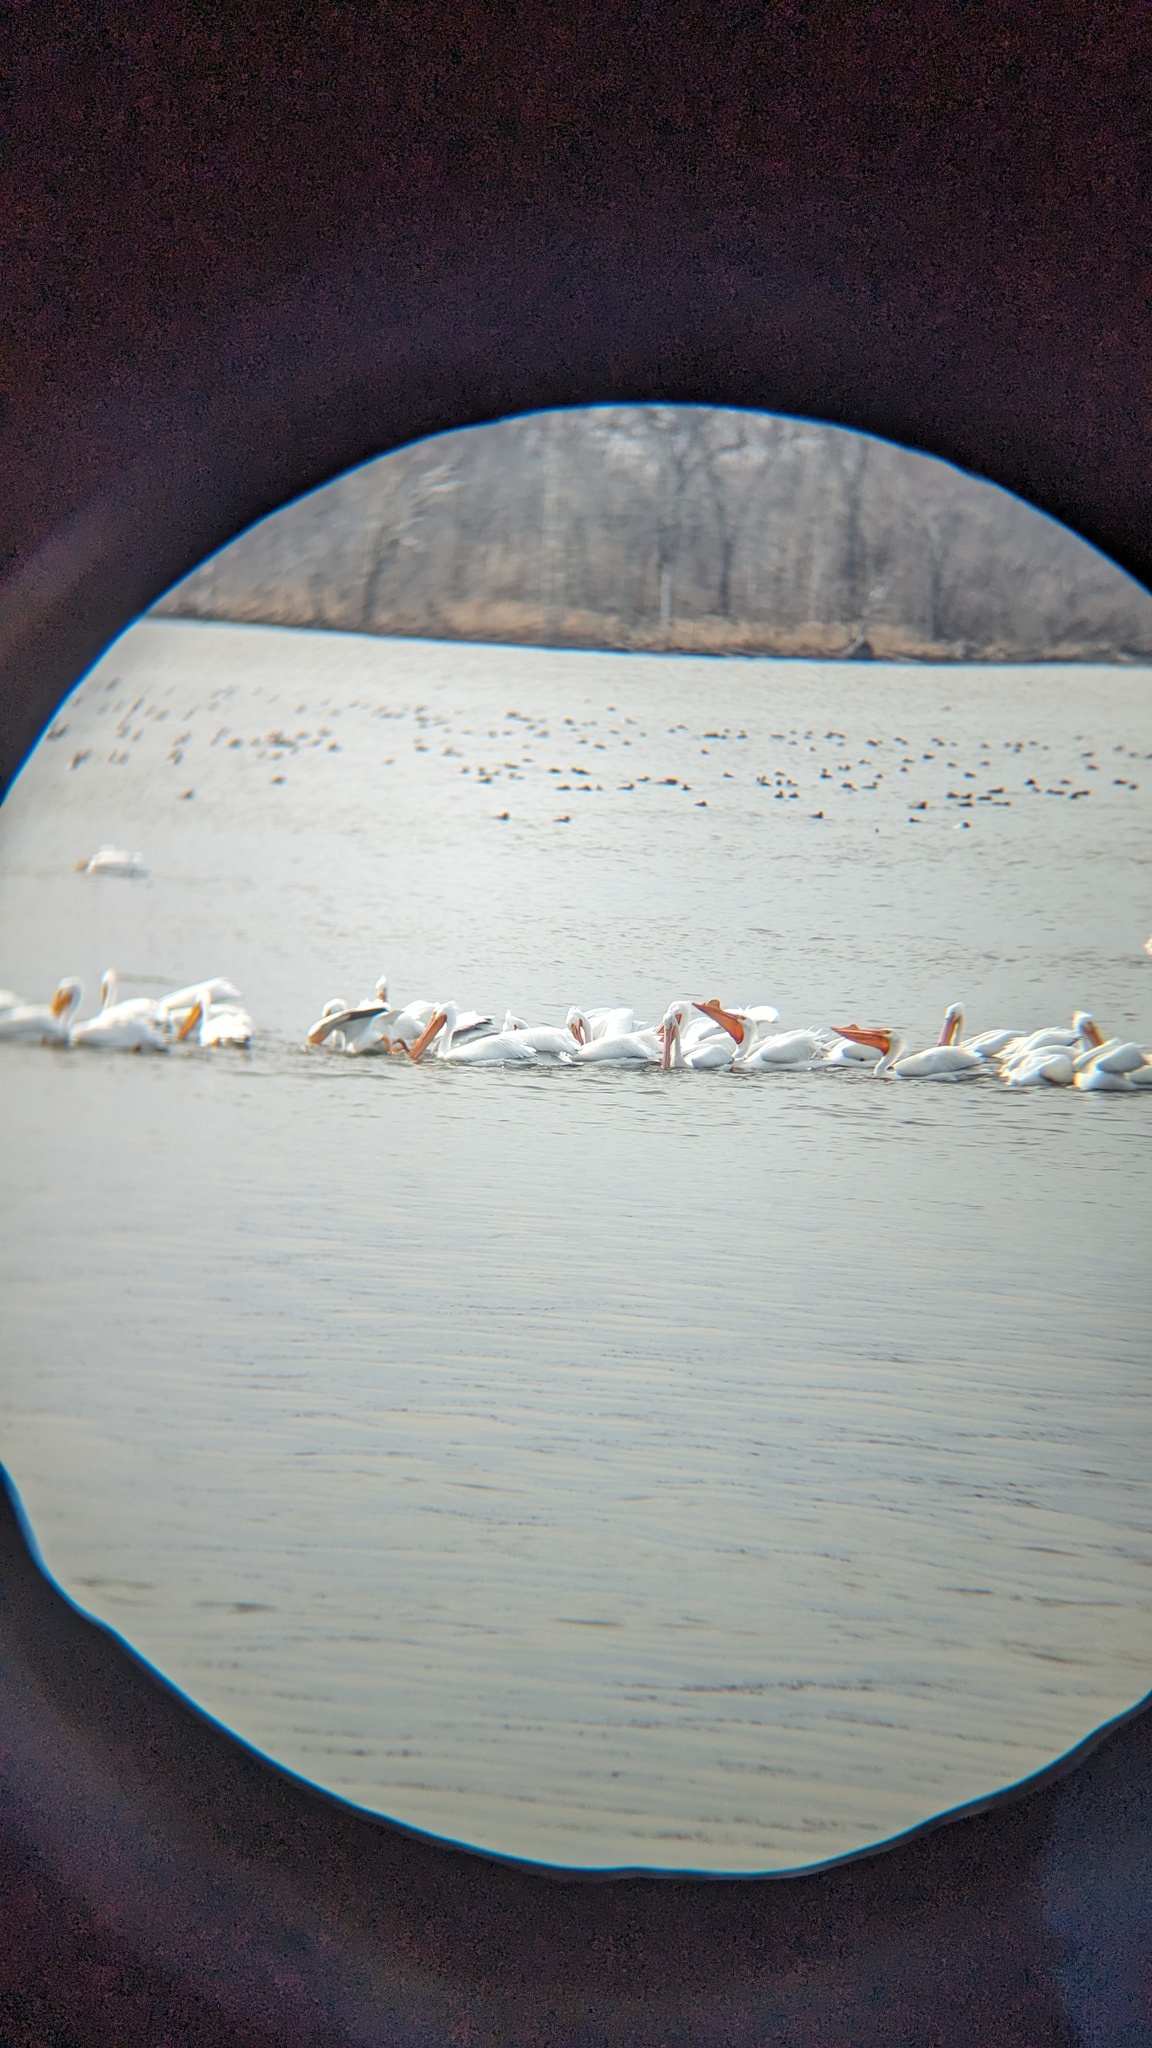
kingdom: Animalia
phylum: Chordata
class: Aves
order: Pelecaniformes
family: Pelecanidae
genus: Pelecanus
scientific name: Pelecanus erythrorhynchos
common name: American white pelican
